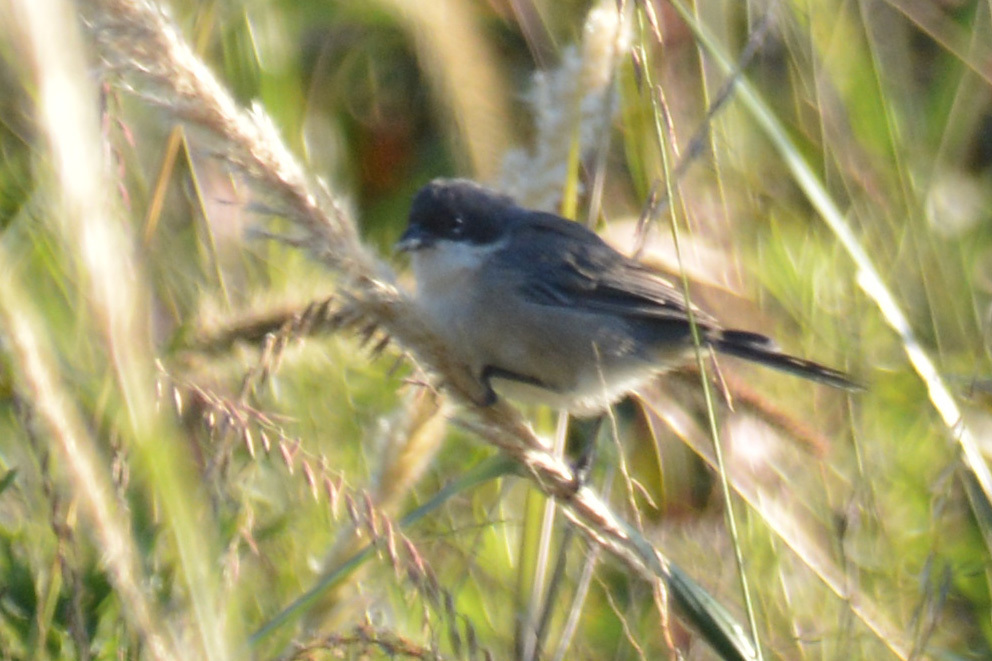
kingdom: Animalia
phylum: Chordata
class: Aves
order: Passeriformes
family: Thraupidae
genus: Microspingus
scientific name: Microspingus melanoleucus
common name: Black-capped warbling-finch
